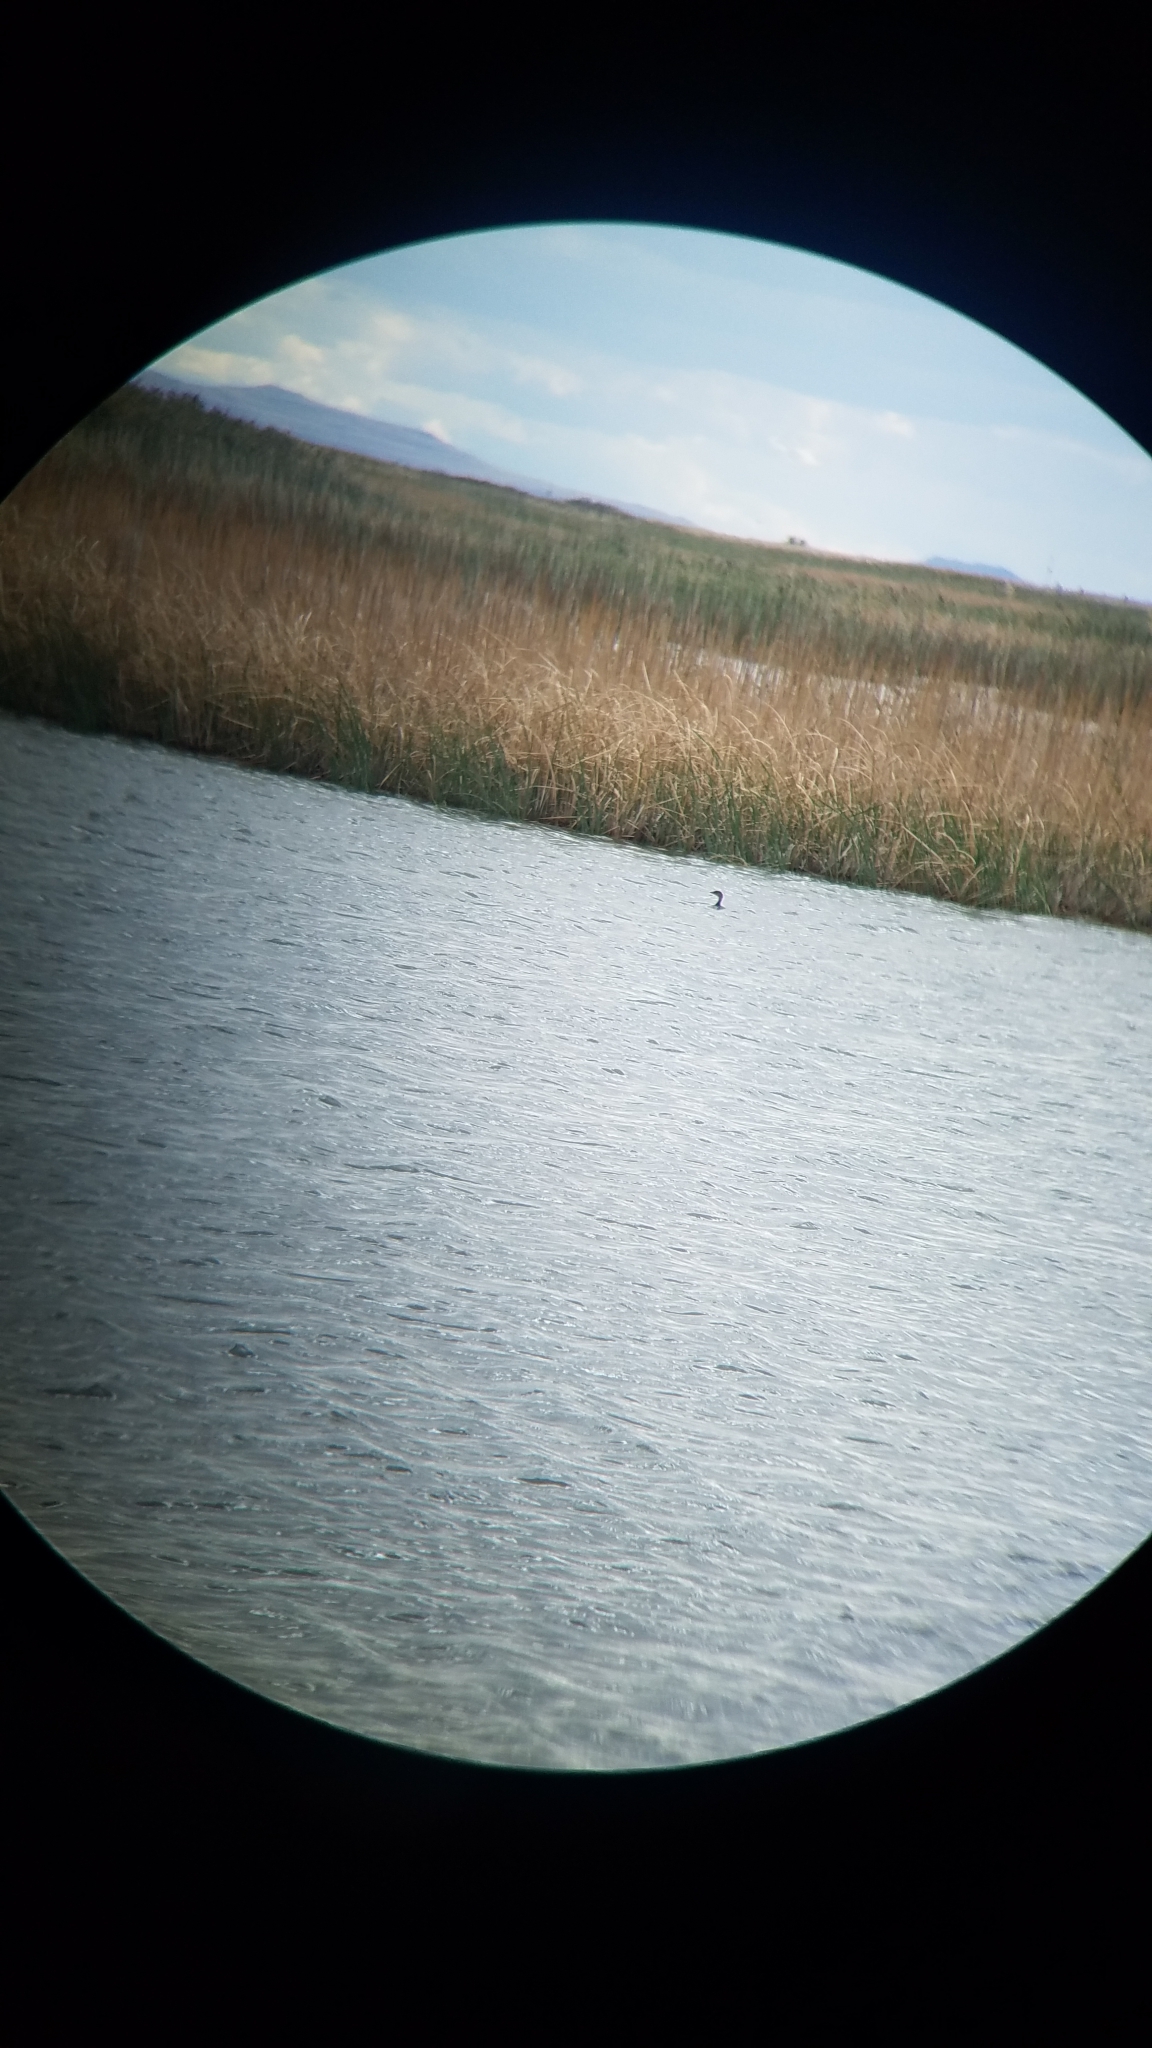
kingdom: Animalia
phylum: Chordata
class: Aves
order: Podicipediformes
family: Podicipedidae
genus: Podilymbus
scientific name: Podilymbus podiceps
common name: Pied-billed grebe
